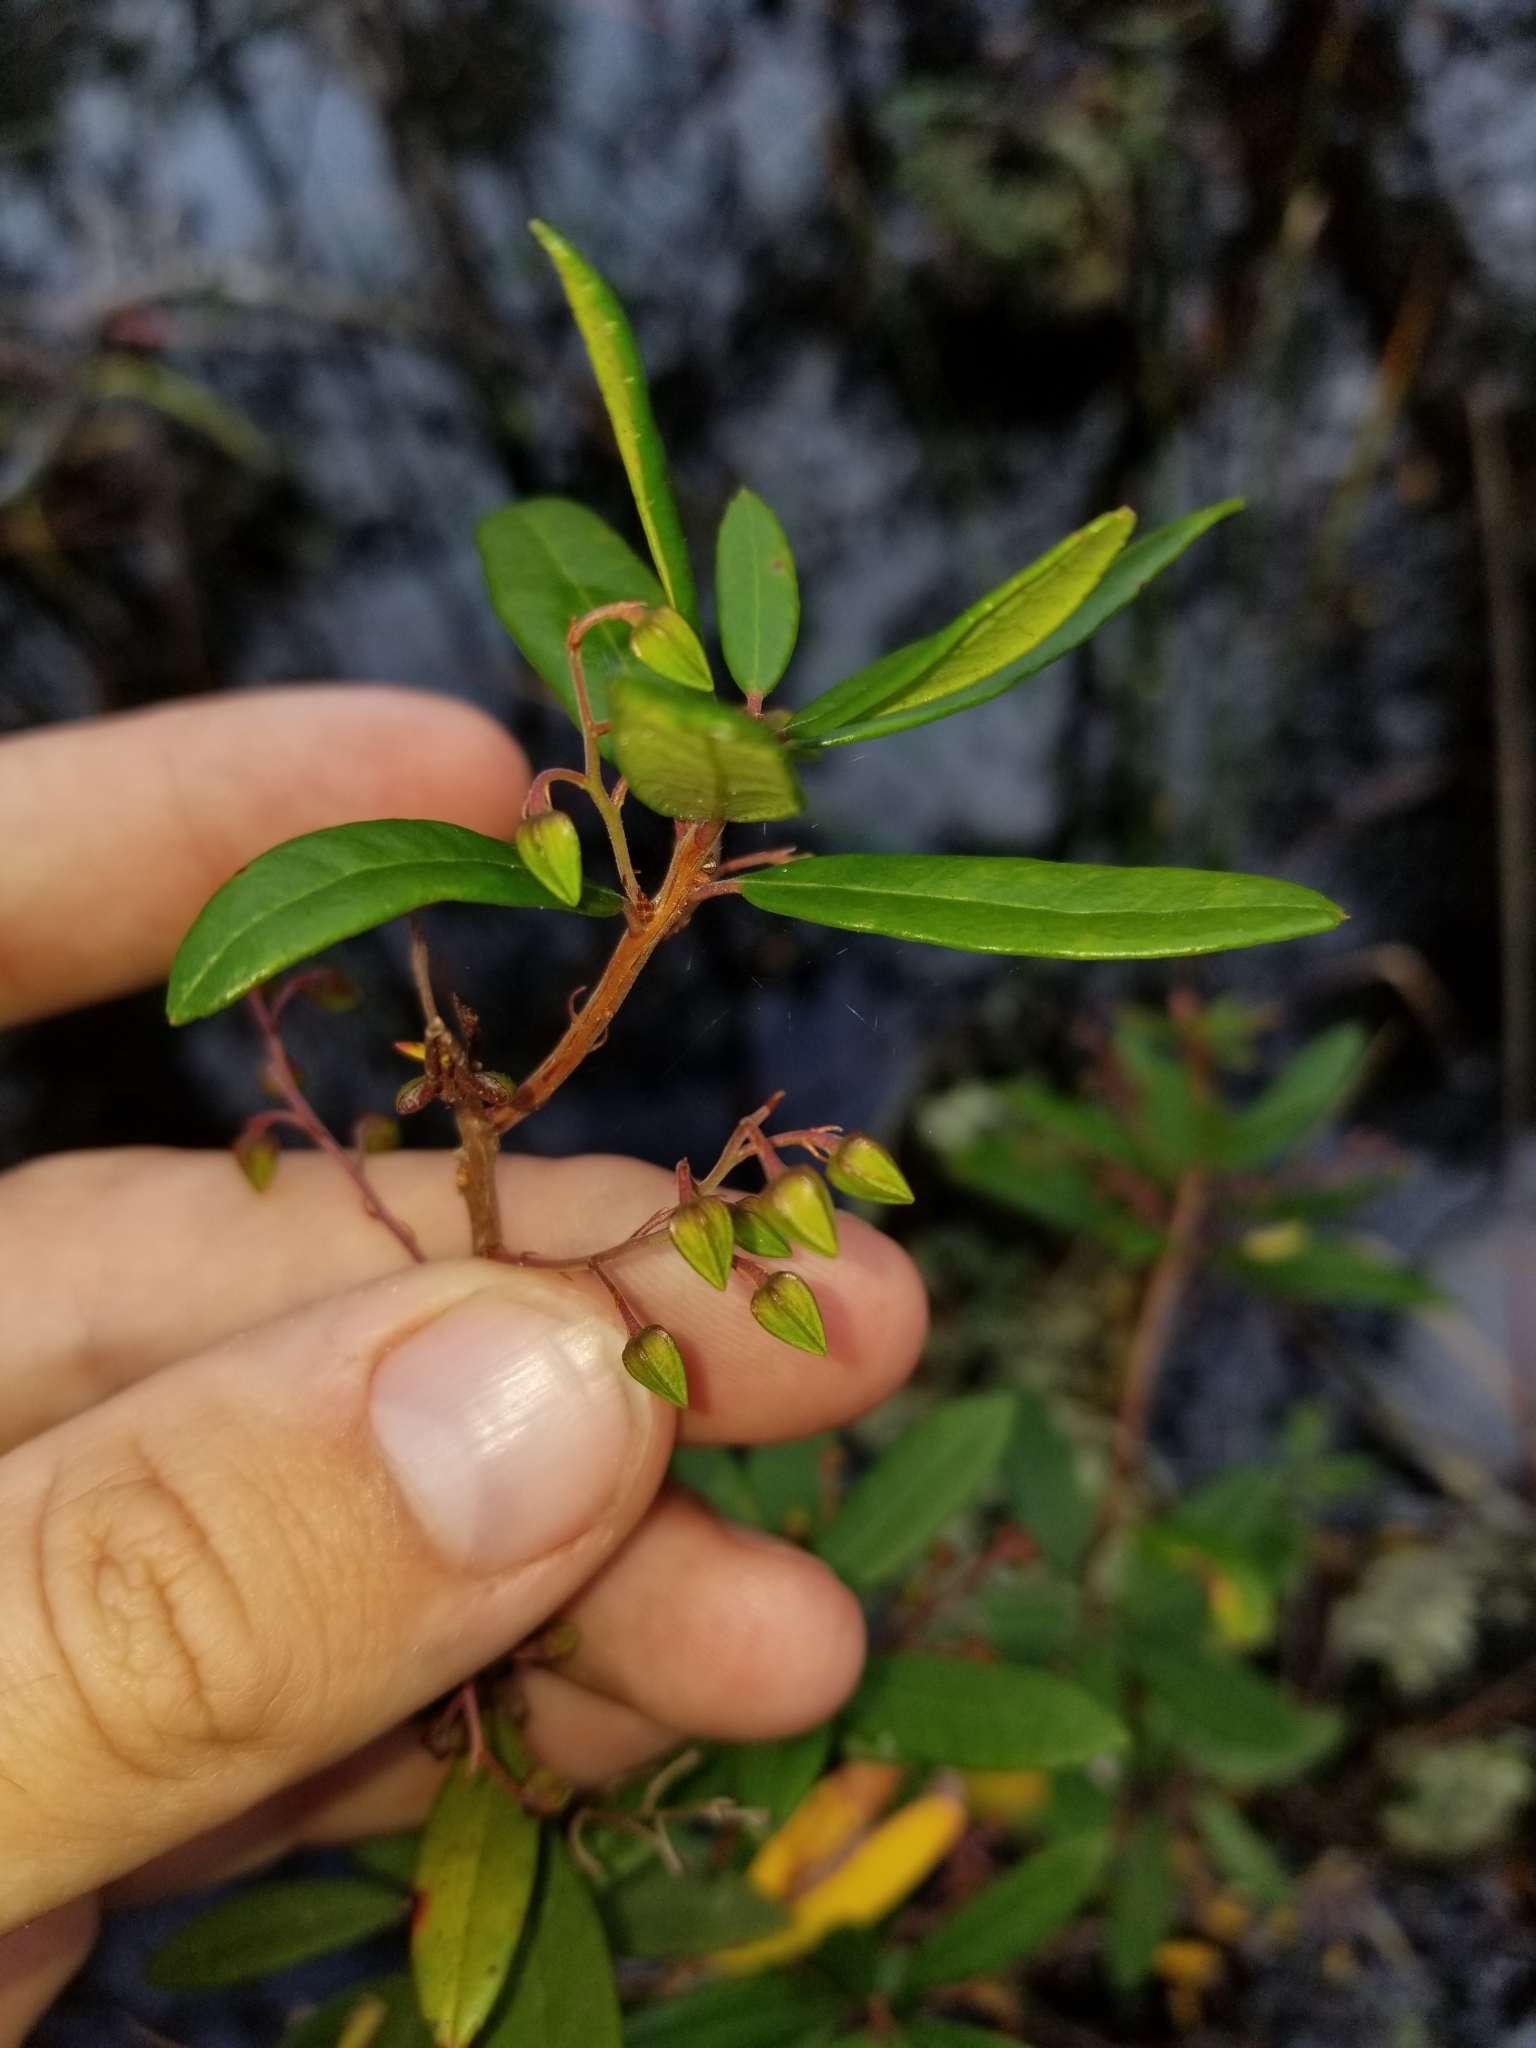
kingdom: Plantae
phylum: Tracheophyta
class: Magnoliopsida
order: Ericales
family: Ericaceae
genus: Pieris
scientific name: Pieris phillyreifolia
